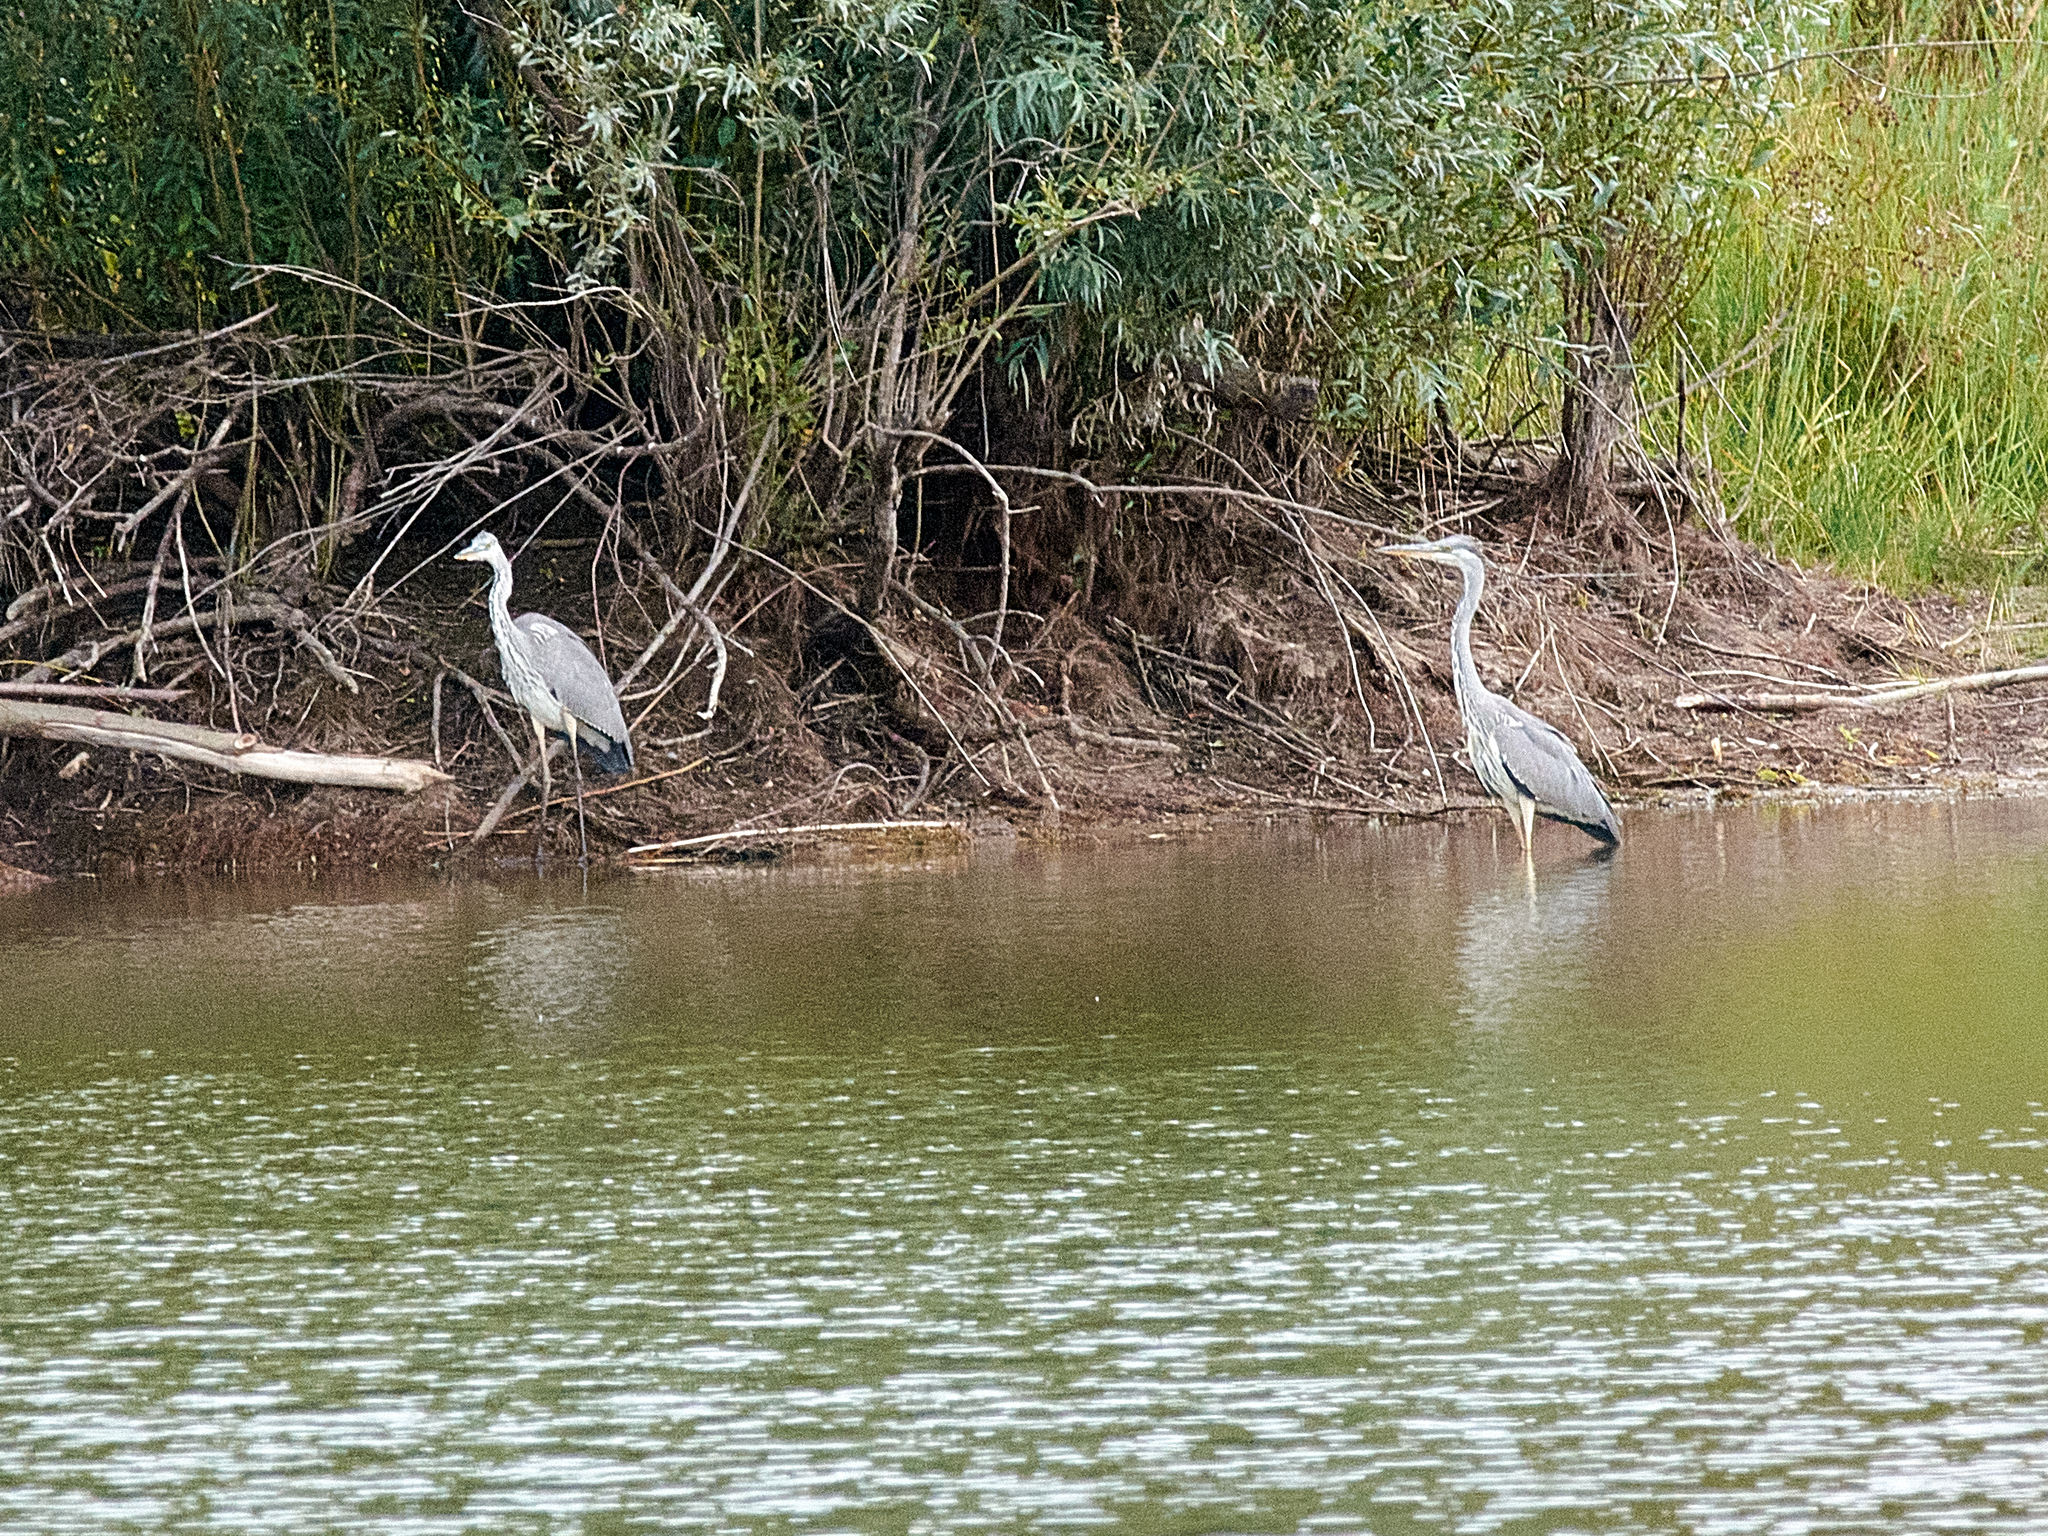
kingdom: Animalia
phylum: Chordata
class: Aves
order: Pelecaniformes
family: Ardeidae
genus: Ardea
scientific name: Ardea cinerea
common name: Grey heron
